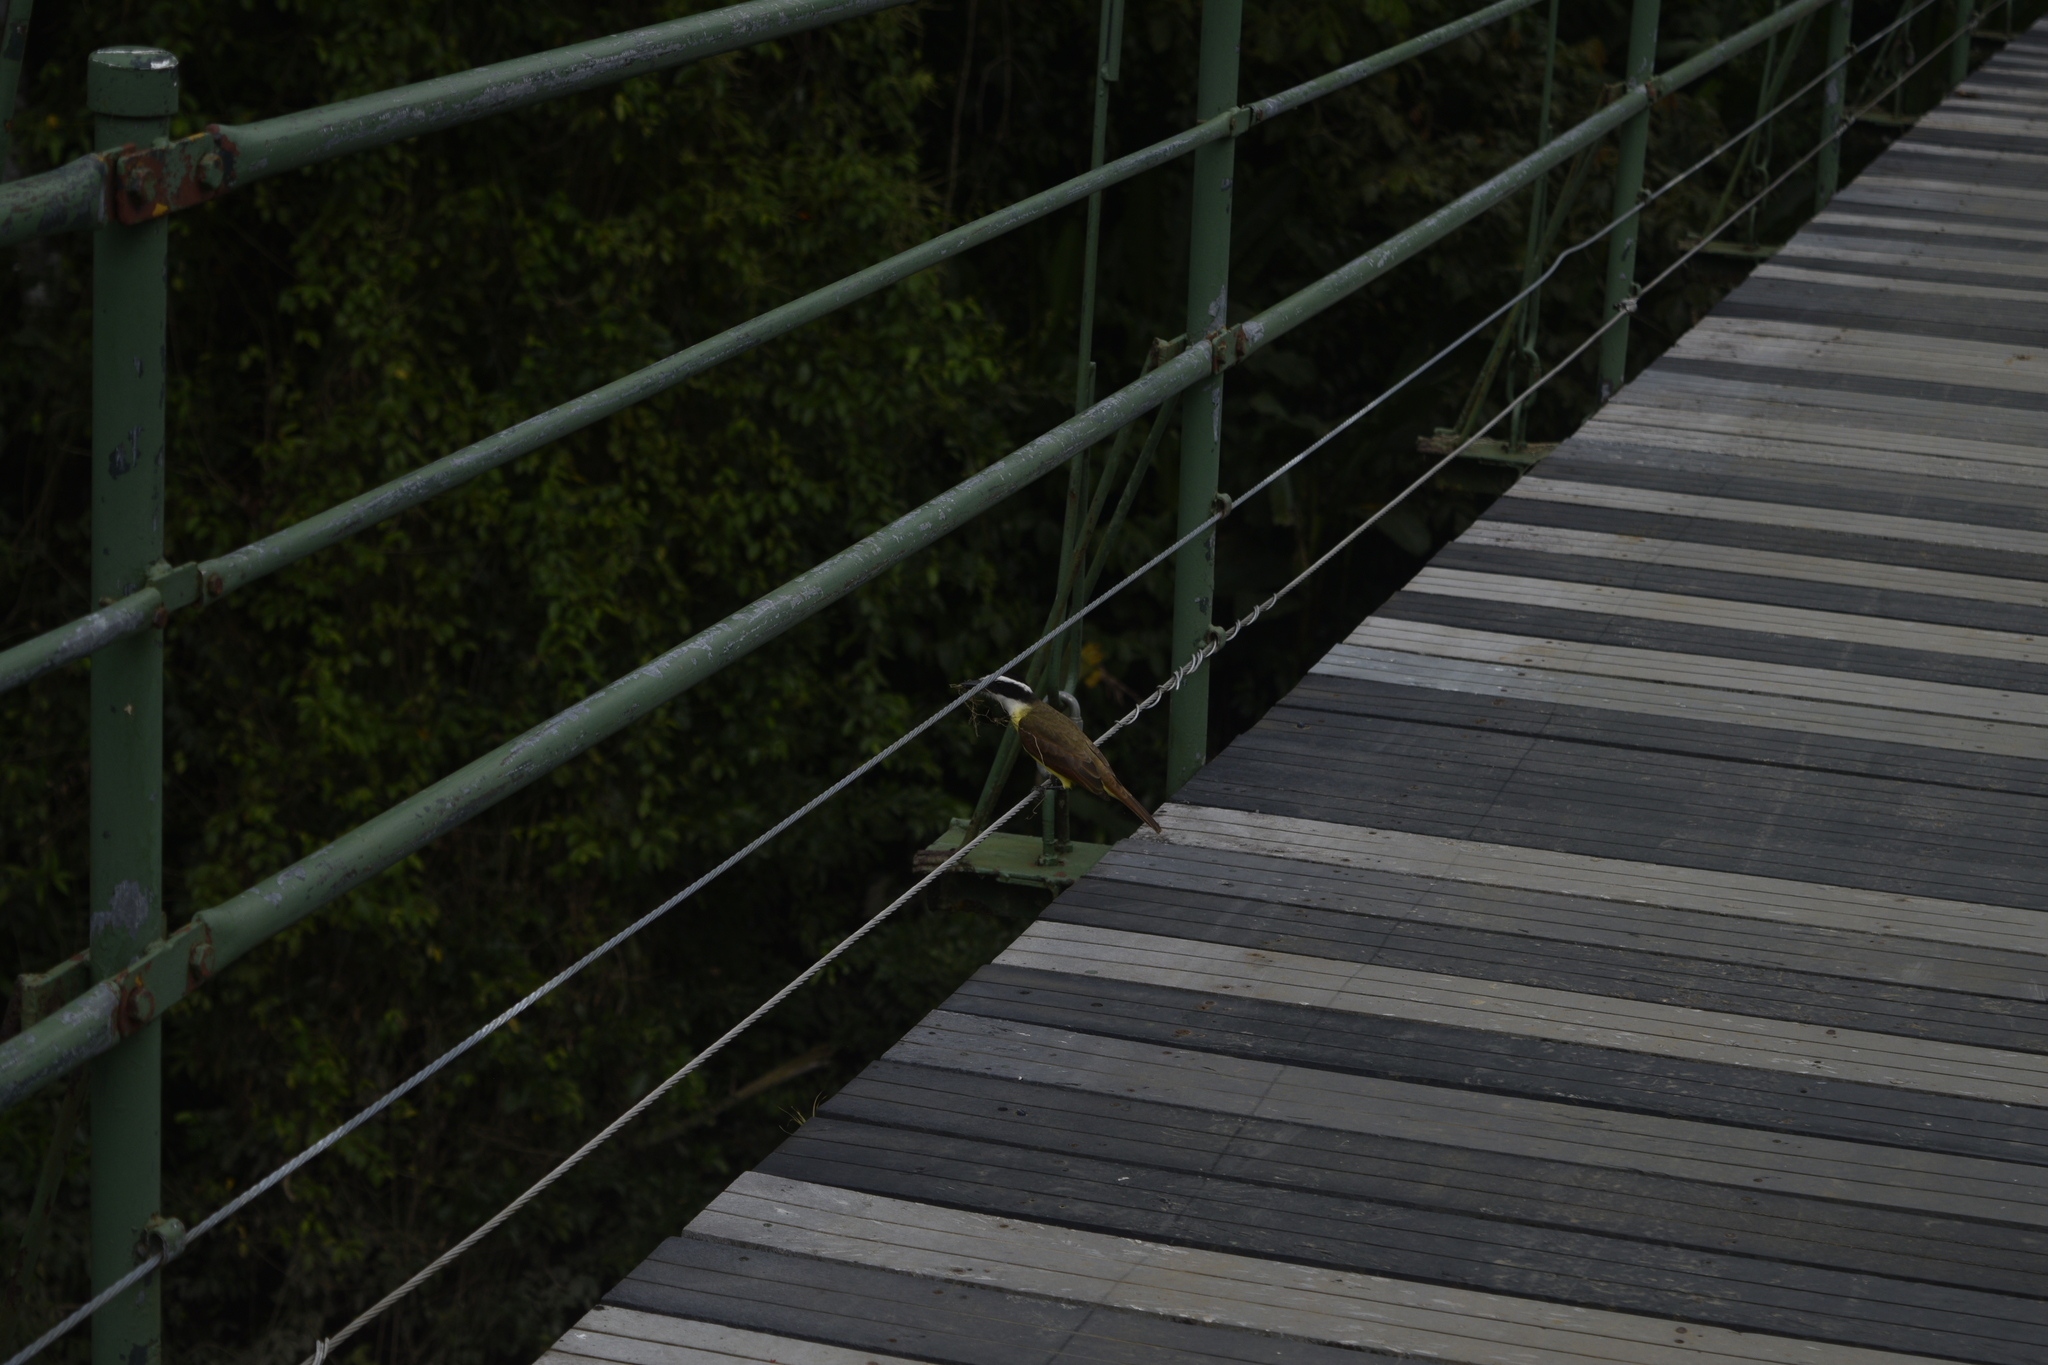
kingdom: Animalia
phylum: Chordata
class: Aves
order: Passeriformes
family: Tyrannidae
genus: Pitangus
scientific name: Pitangus sulphuratus
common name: Great kiskadee
